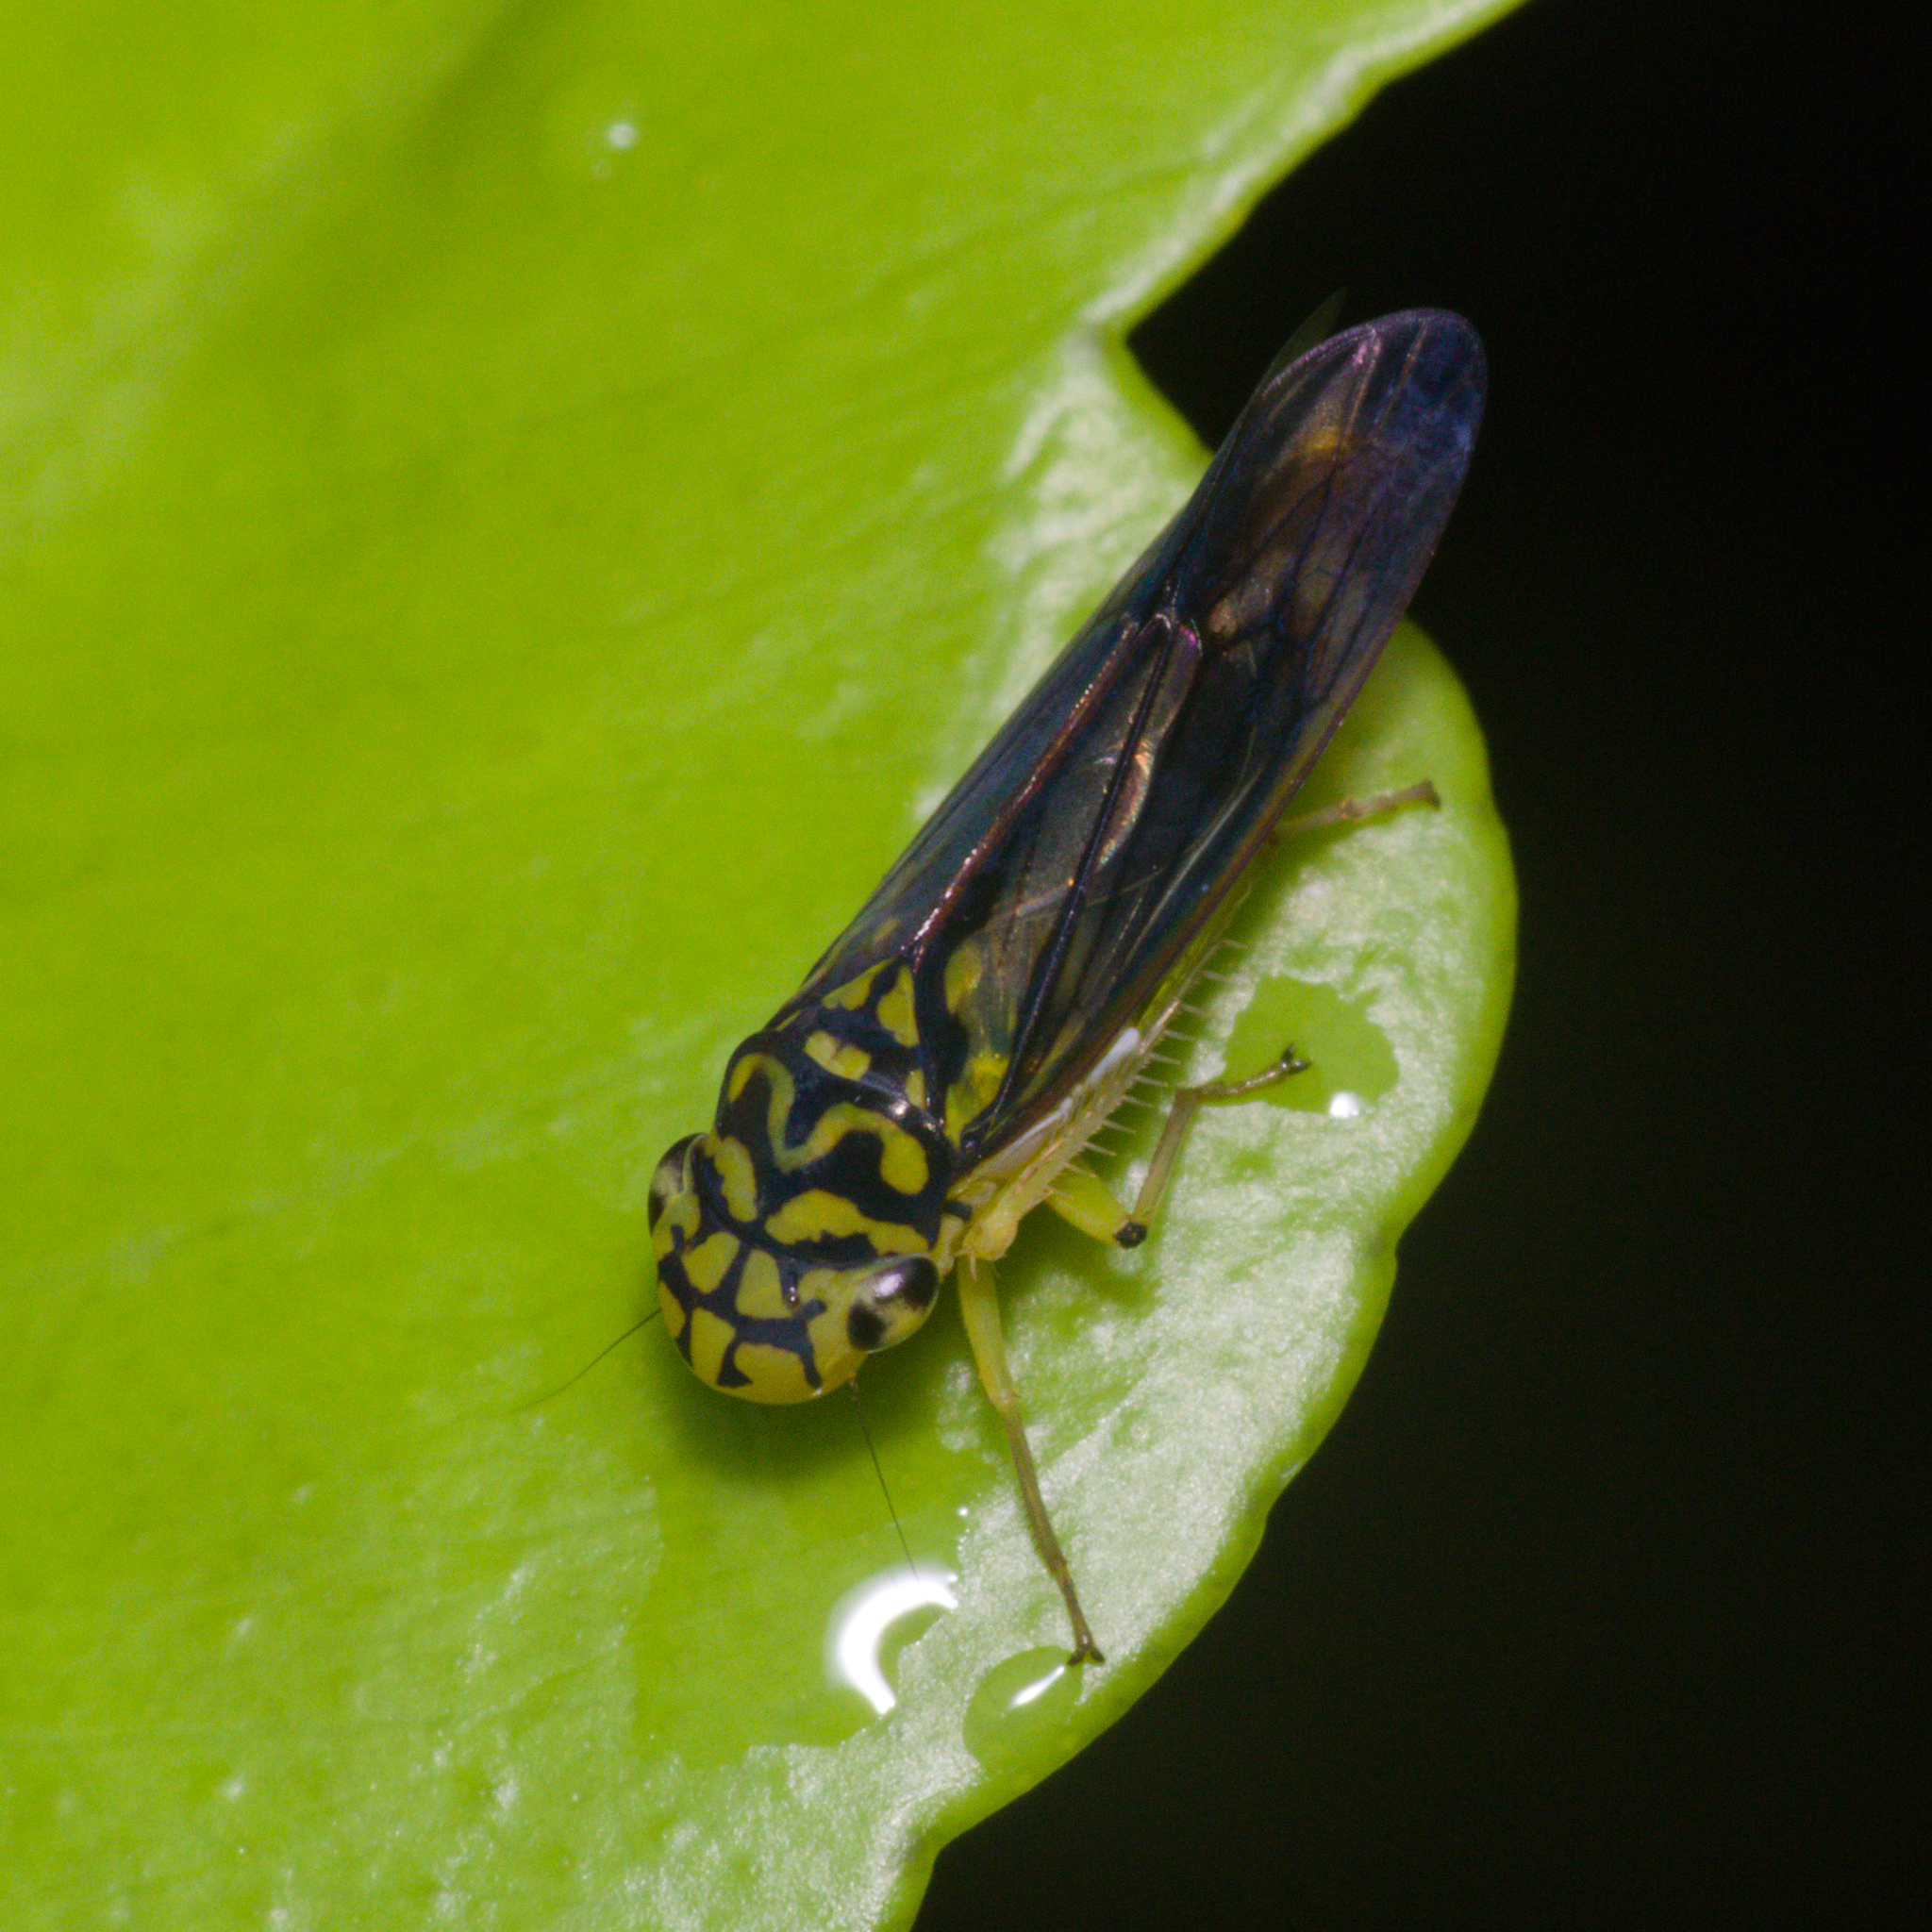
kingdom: Animalia
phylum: Arthropoda
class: Insecta
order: Hemiptera
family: Cicadellidae
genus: Dilobopterus
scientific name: Dilobopterus costalimai
